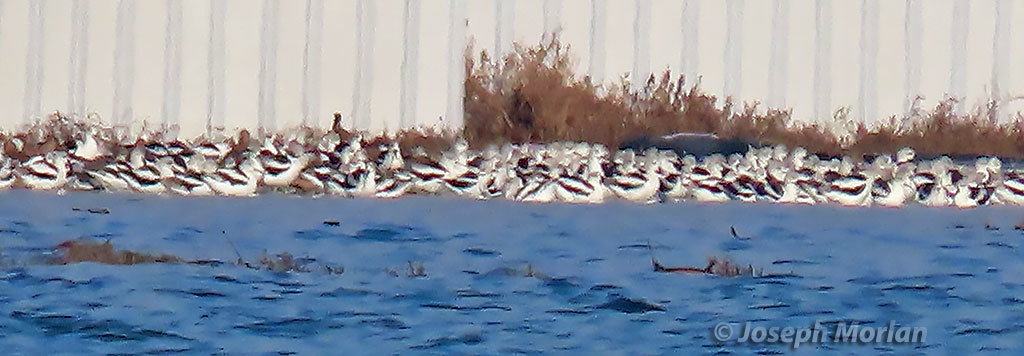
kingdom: Animalia
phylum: Chordata
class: Aves
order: Charadriiformes
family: Recurvirostridae
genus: Recurvirostra
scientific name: Recurvirostra americana
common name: American avocet
